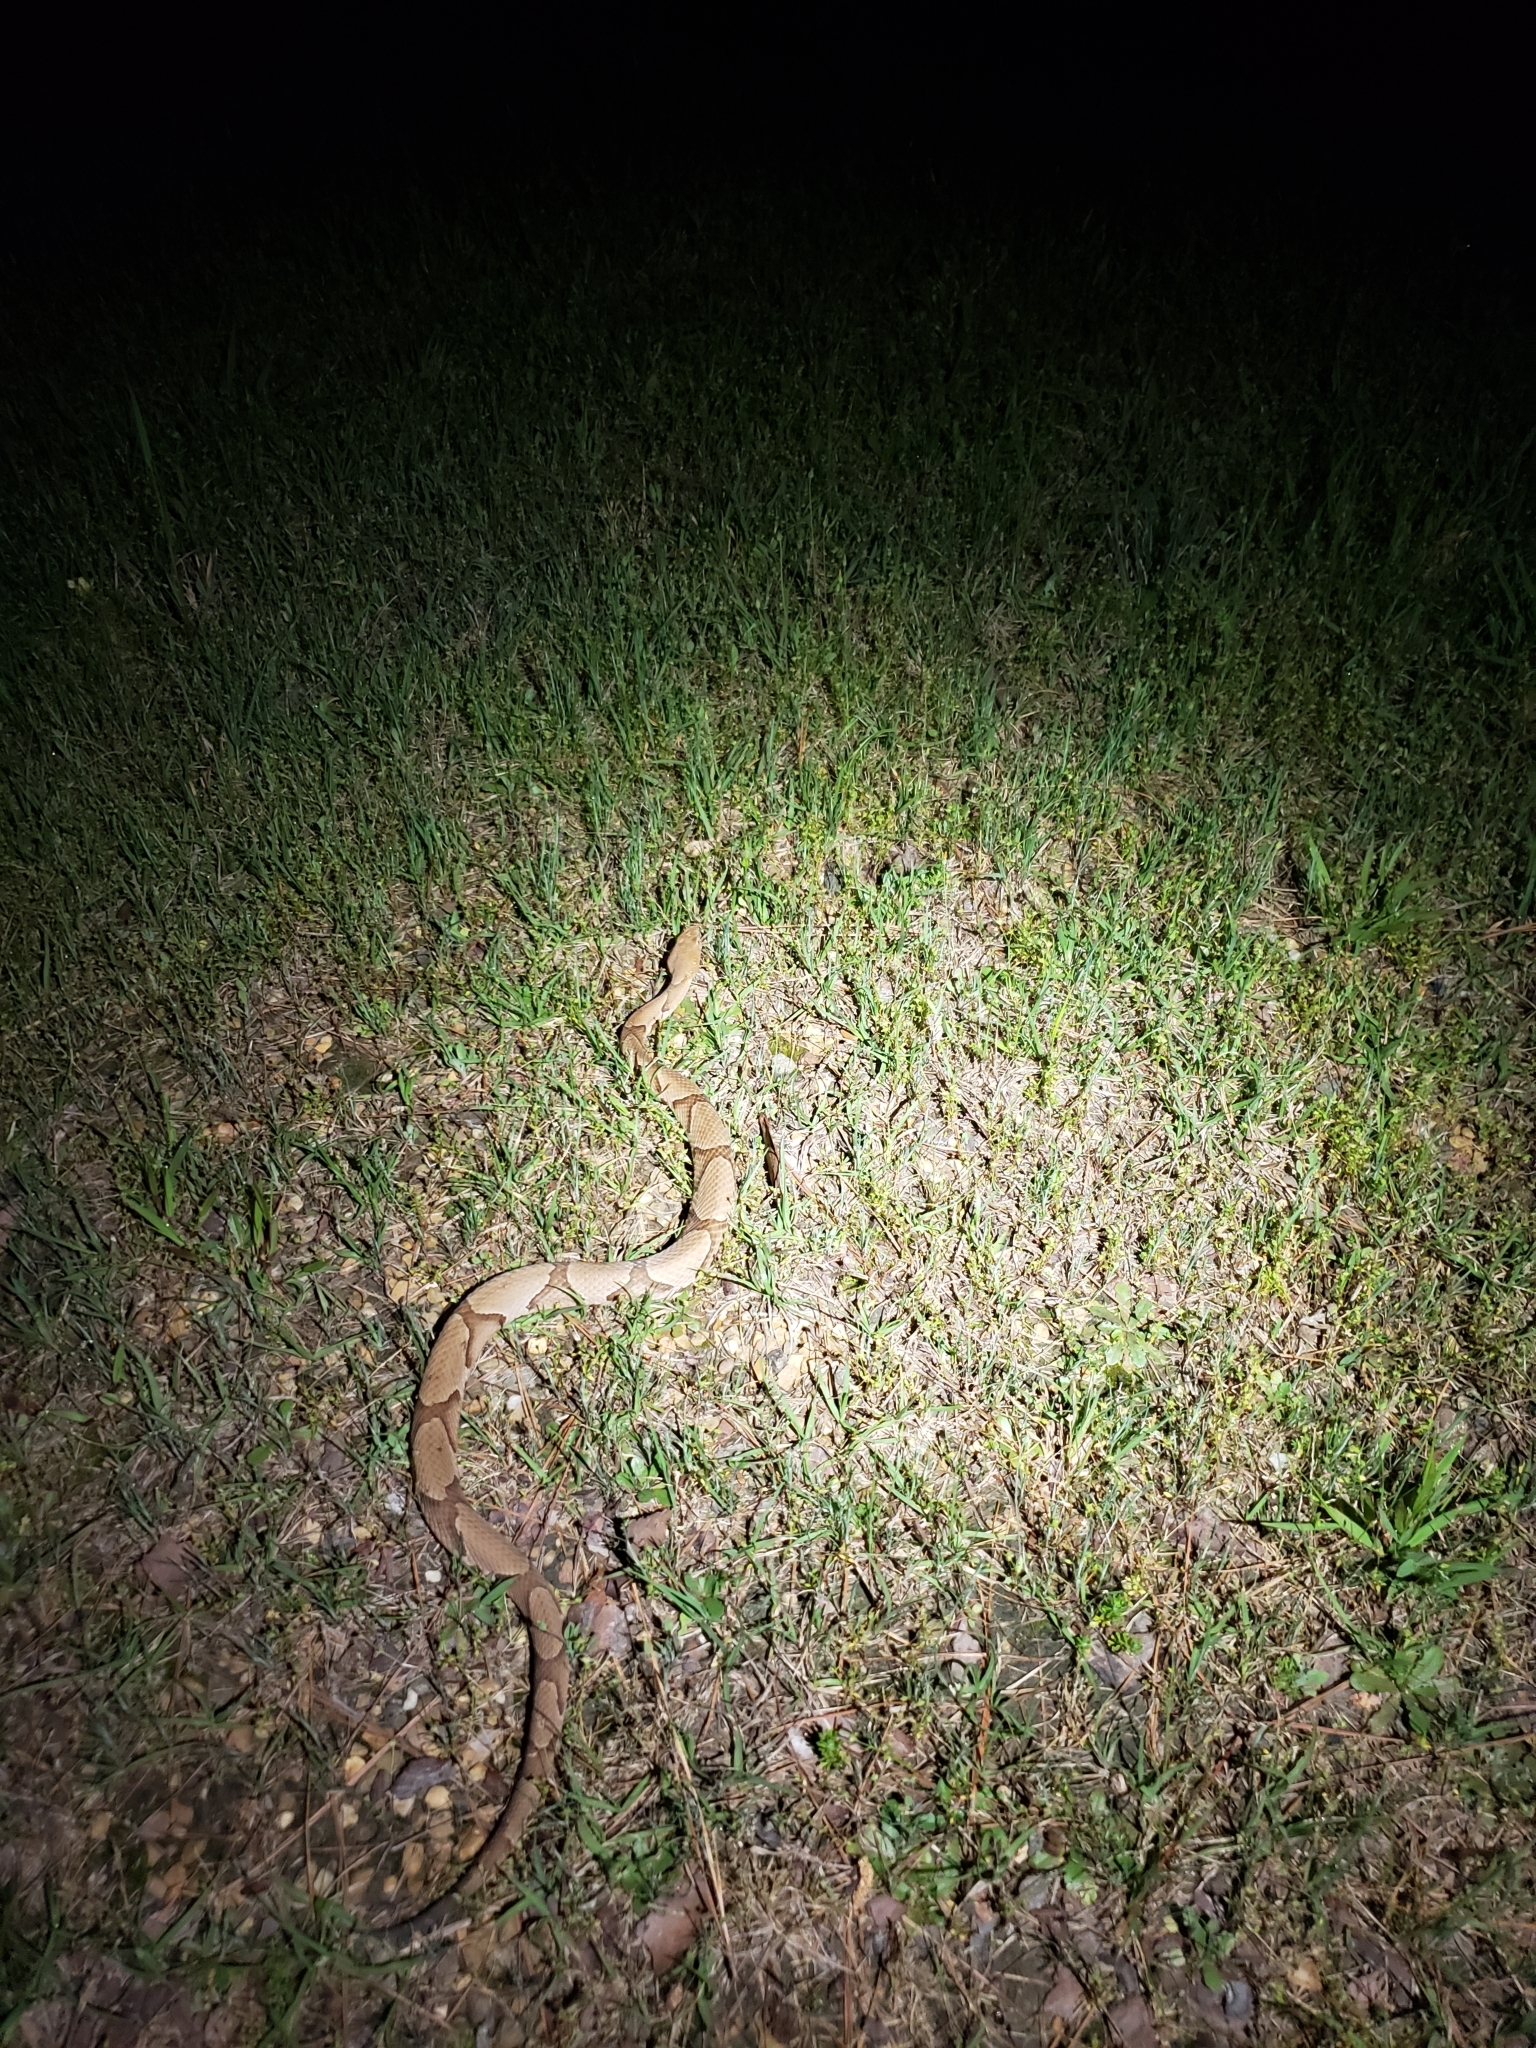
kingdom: Animalia
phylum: Chordata
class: Squamata
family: Viperidae
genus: Agkistrodon
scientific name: Agkistrodon contortrix
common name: Northern copperhead
